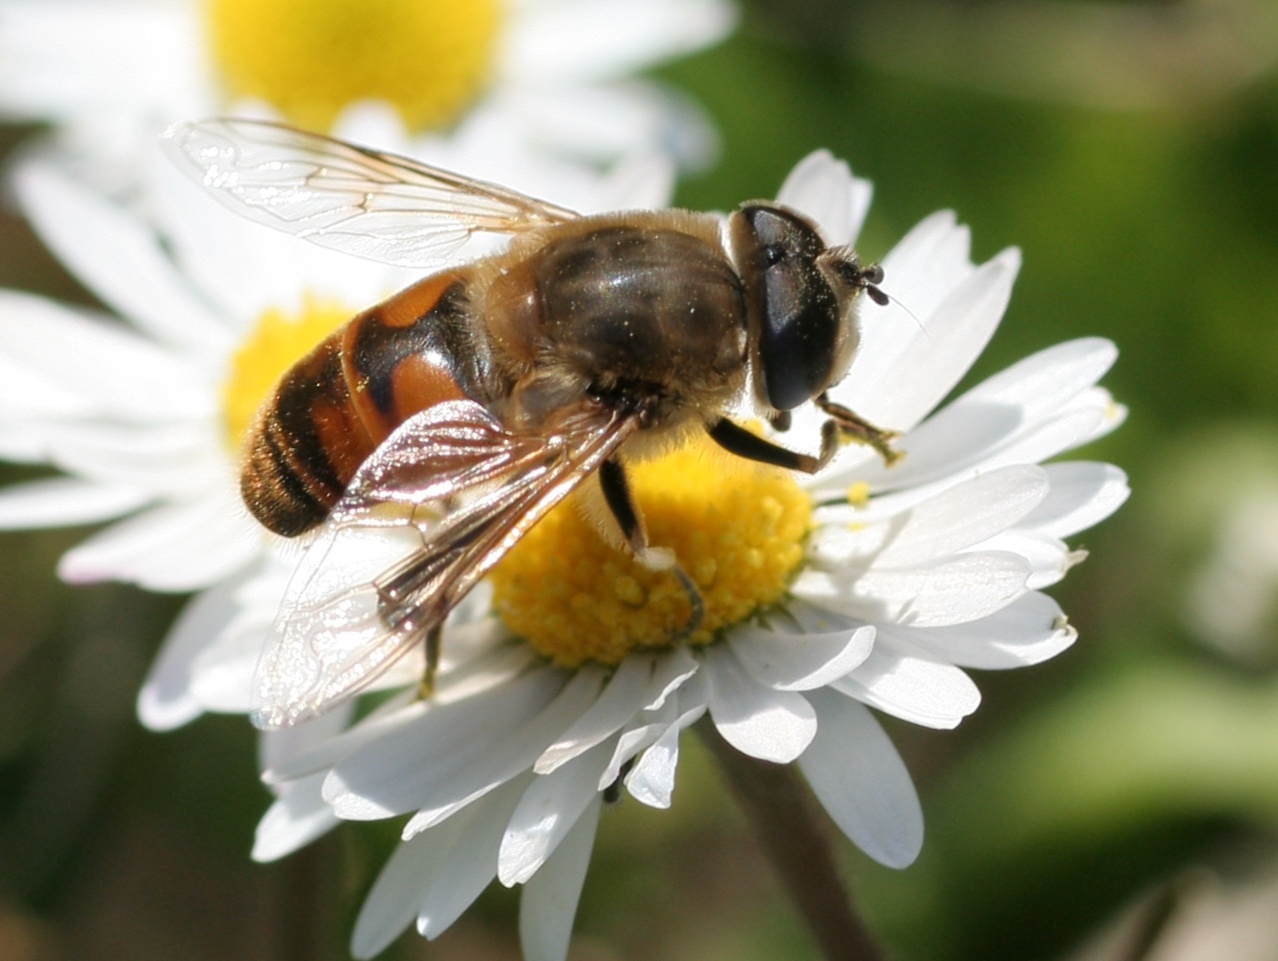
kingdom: Animalia
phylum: Arthropoda
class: Insecta
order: Diptera
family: Syrphidae
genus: Eristalis
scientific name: Eristalis tenax
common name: Drone fly
